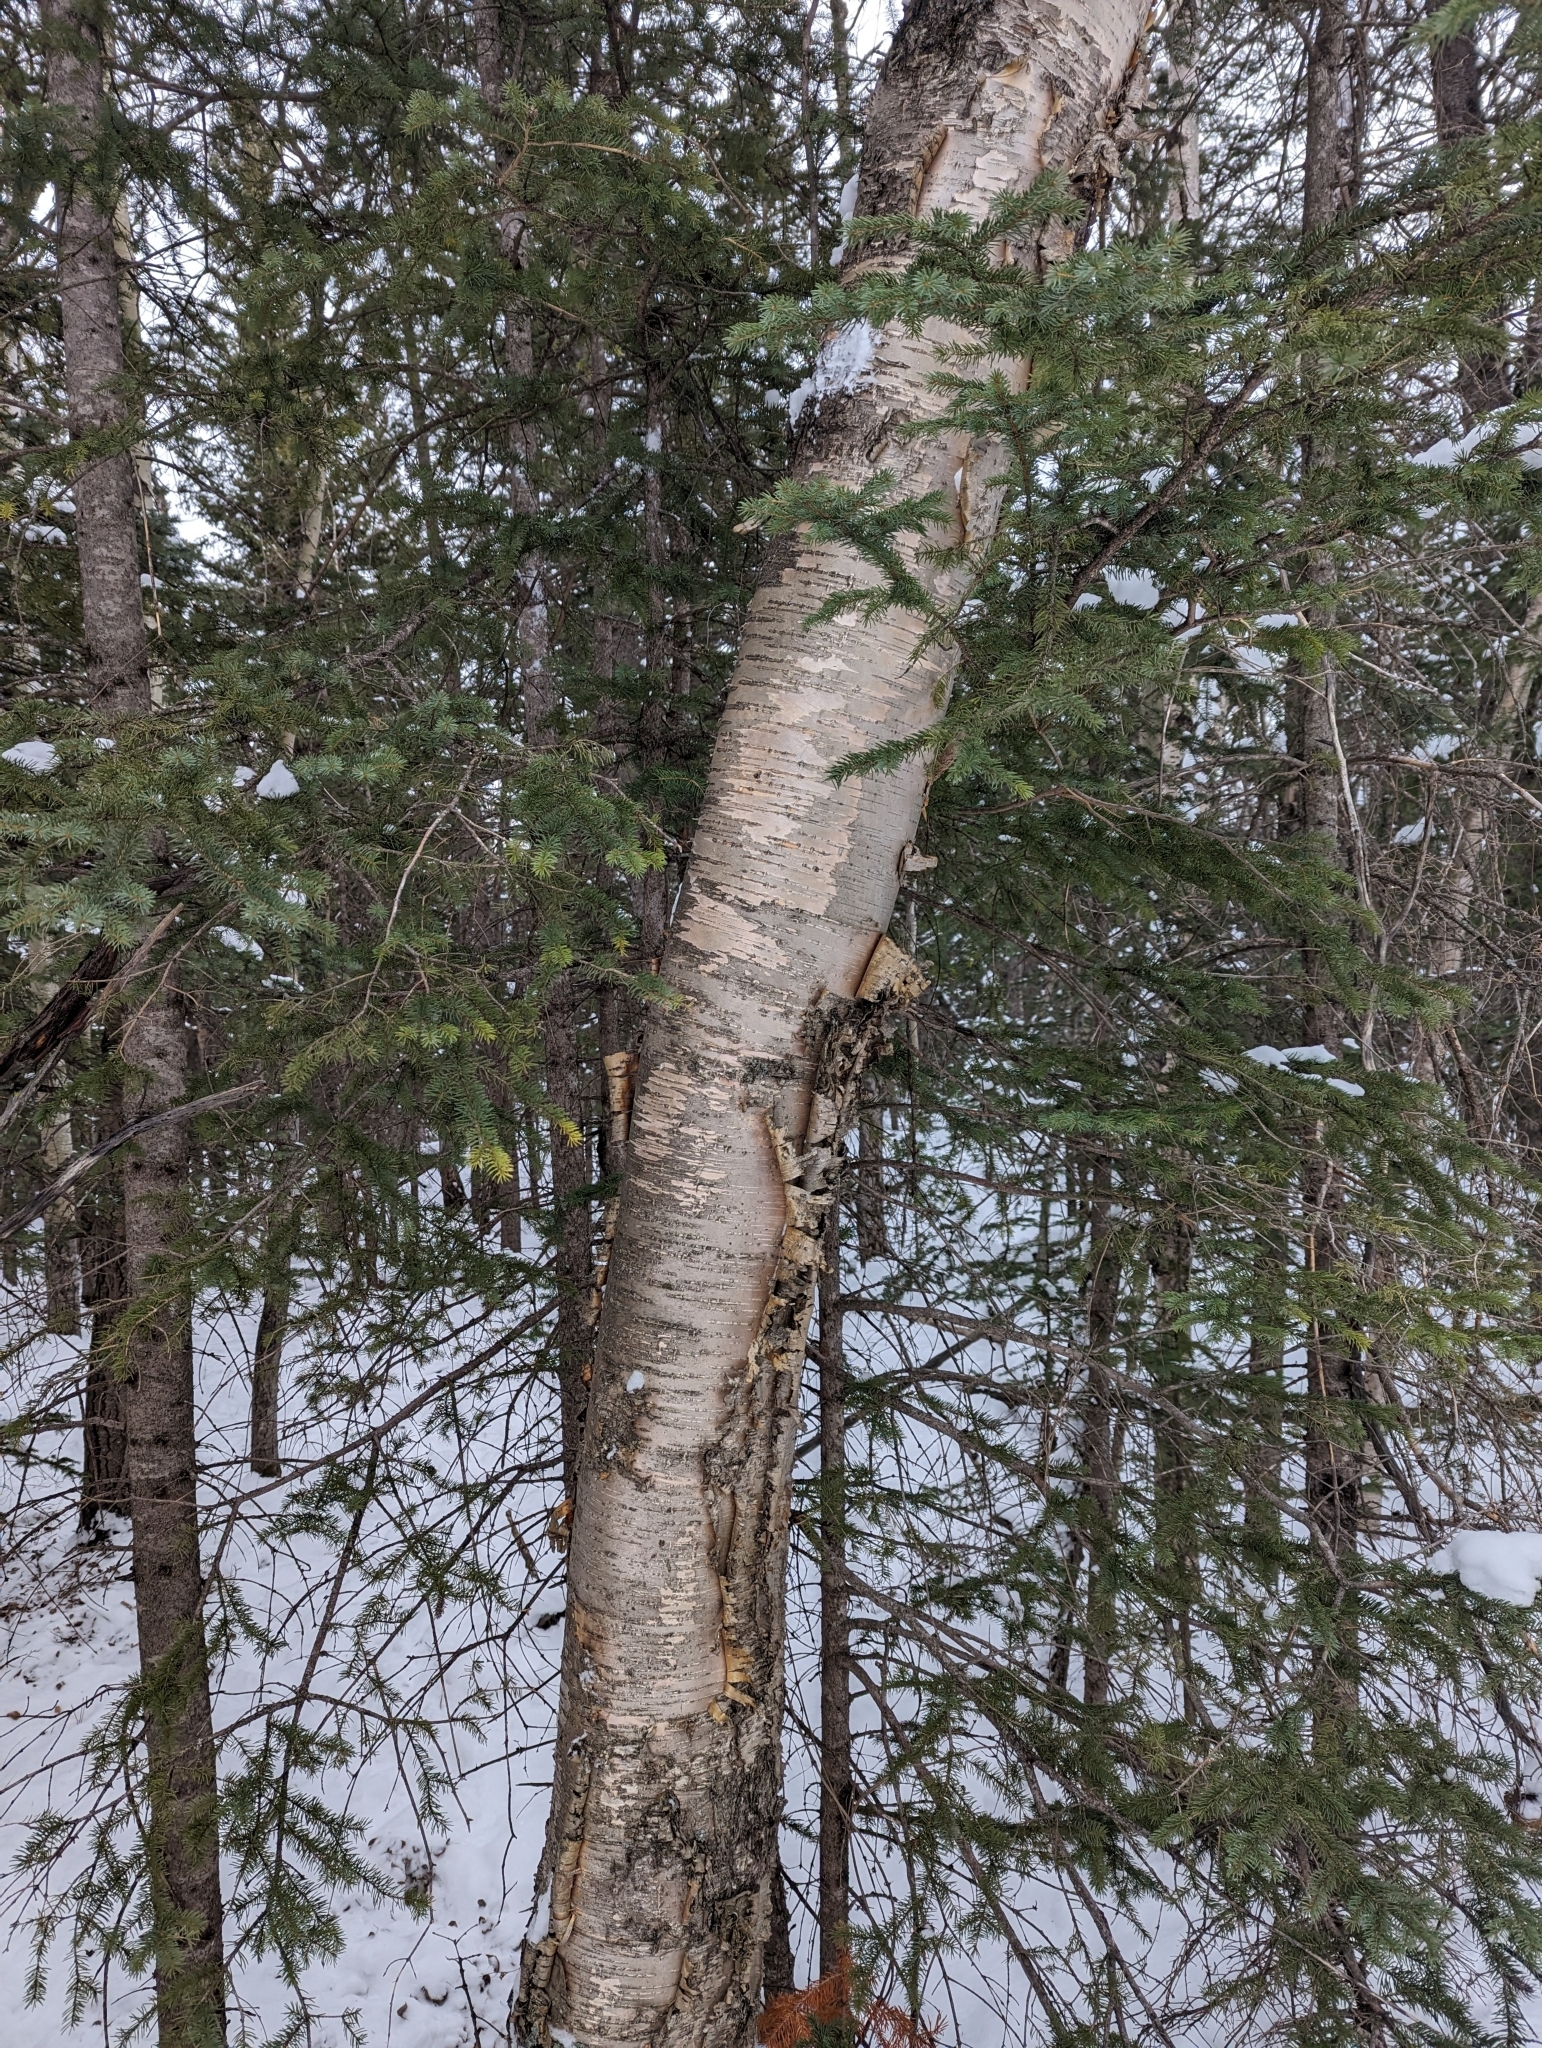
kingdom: Plantae
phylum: Tracheophyta
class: Magnoliopsida
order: Fagales
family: Betulaceae
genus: Betula
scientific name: Betula papyrifera
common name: Paper birch
